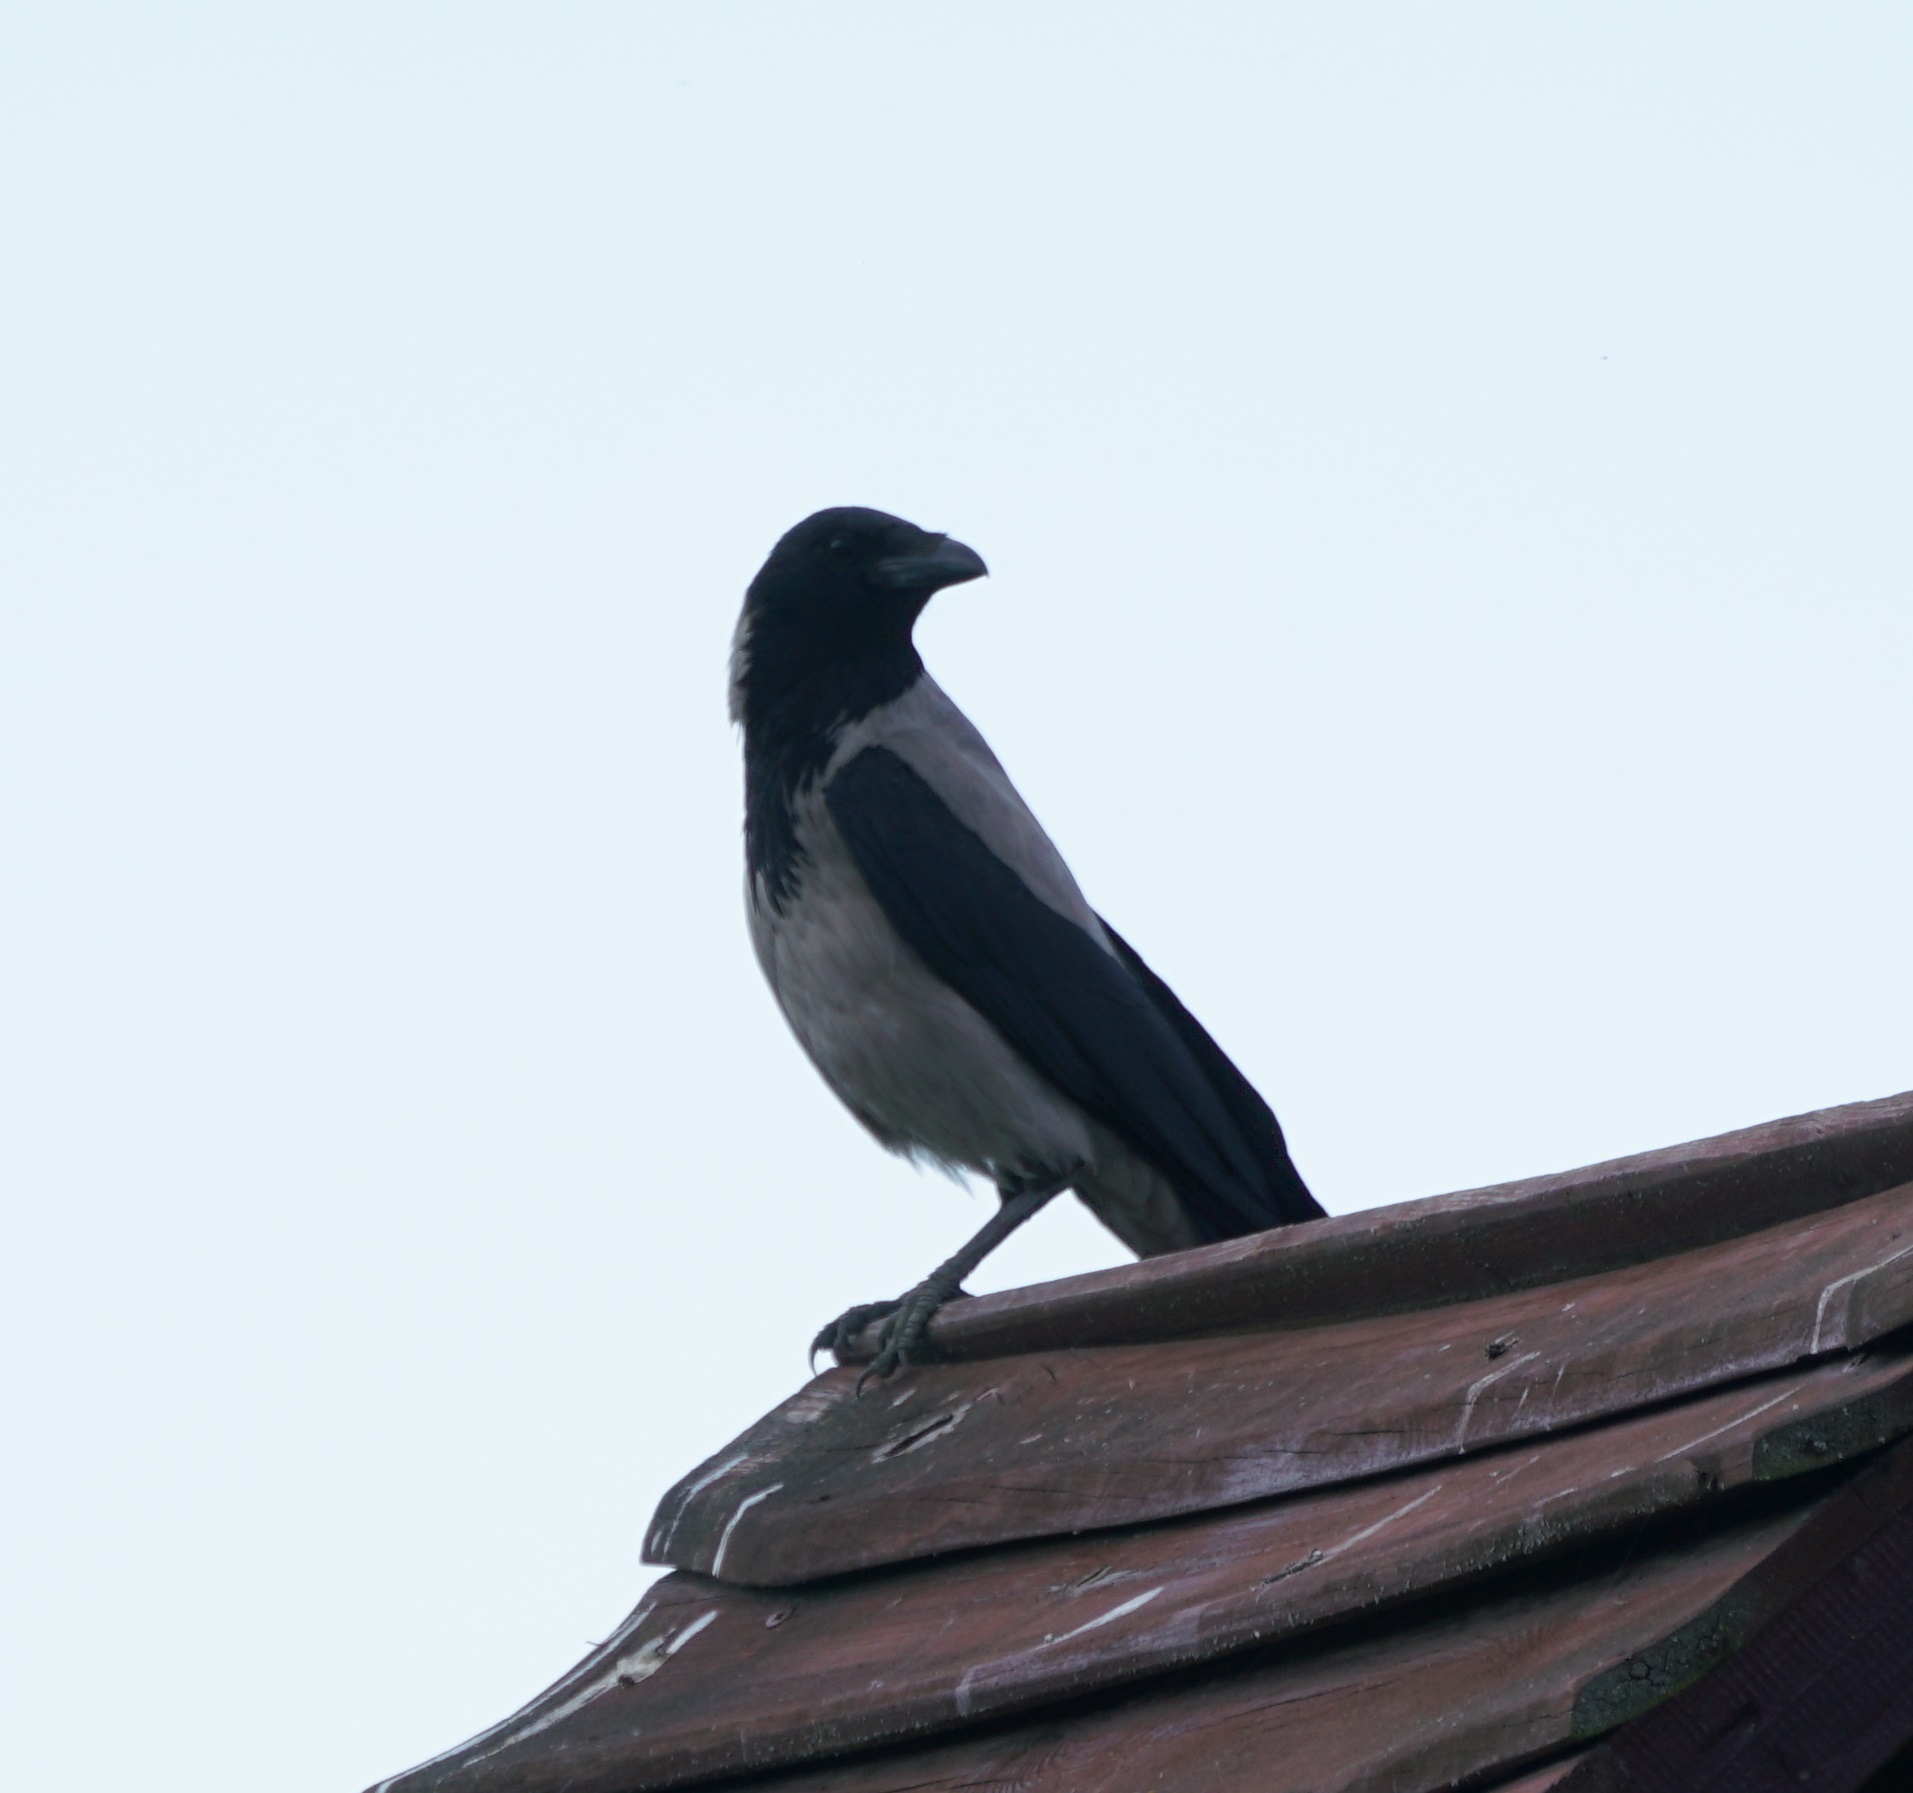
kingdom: Animalia
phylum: Chordata
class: Aves
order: Passeriformes
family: Corvidae
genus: Corvus
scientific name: Corvus cornix
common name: Hooded crow
